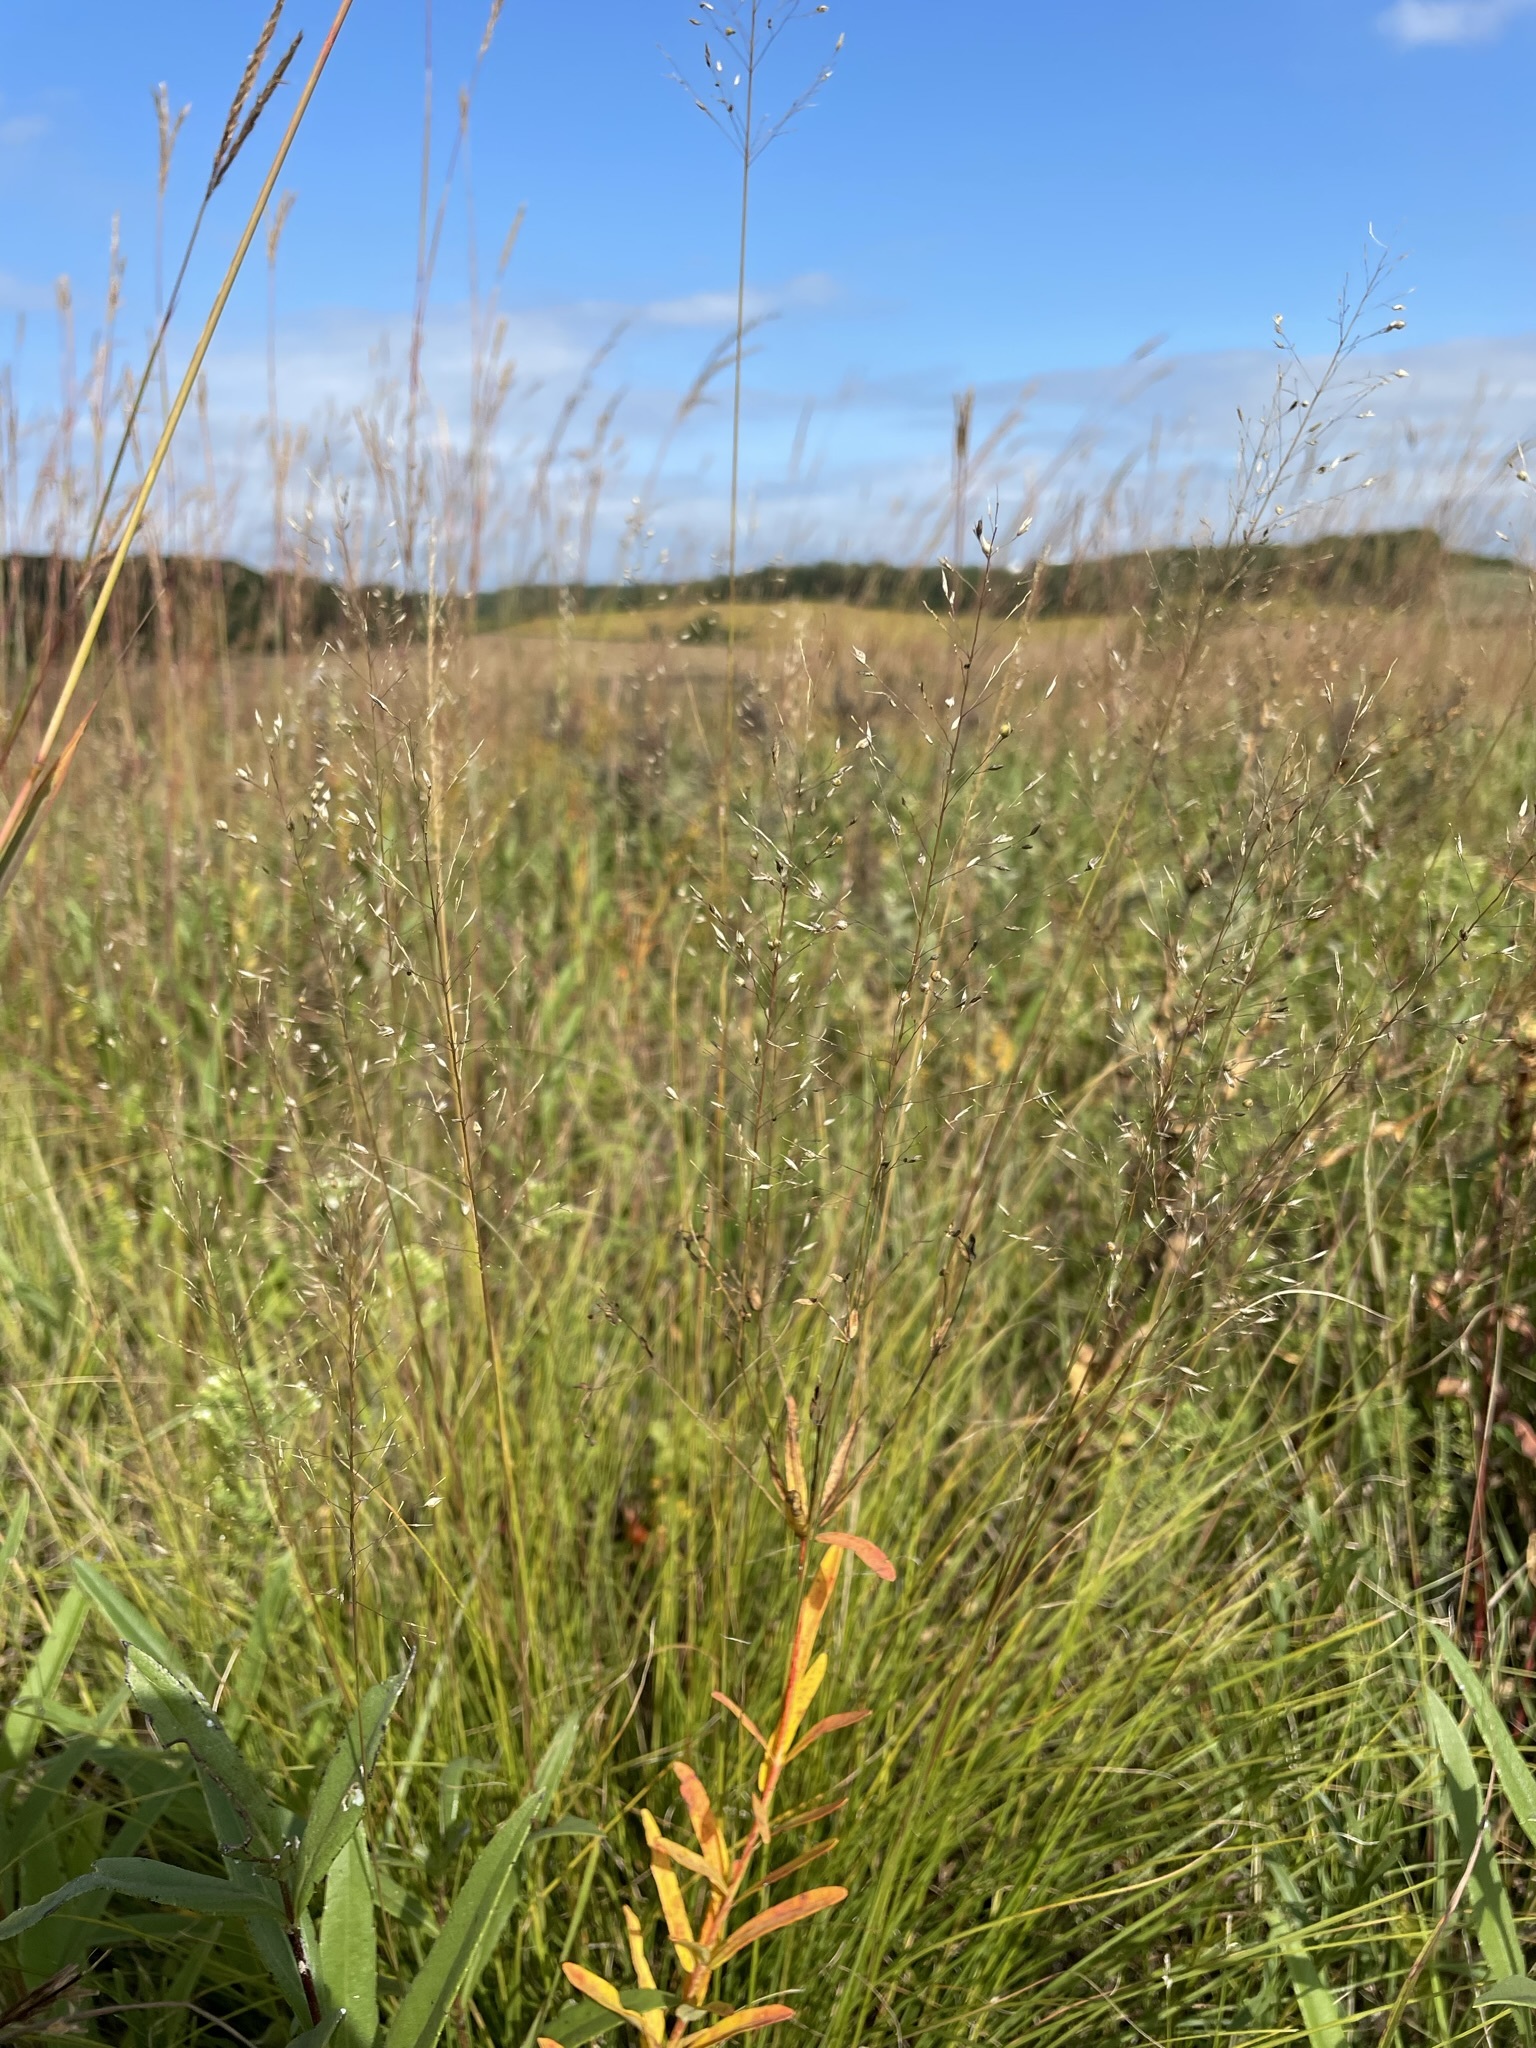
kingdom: Plantae
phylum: Tracheophyta
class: Liliopsida
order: Poales
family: Poaceae
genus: Sporobolus
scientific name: Sporobolus heterolepis
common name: Prairie dropseed
